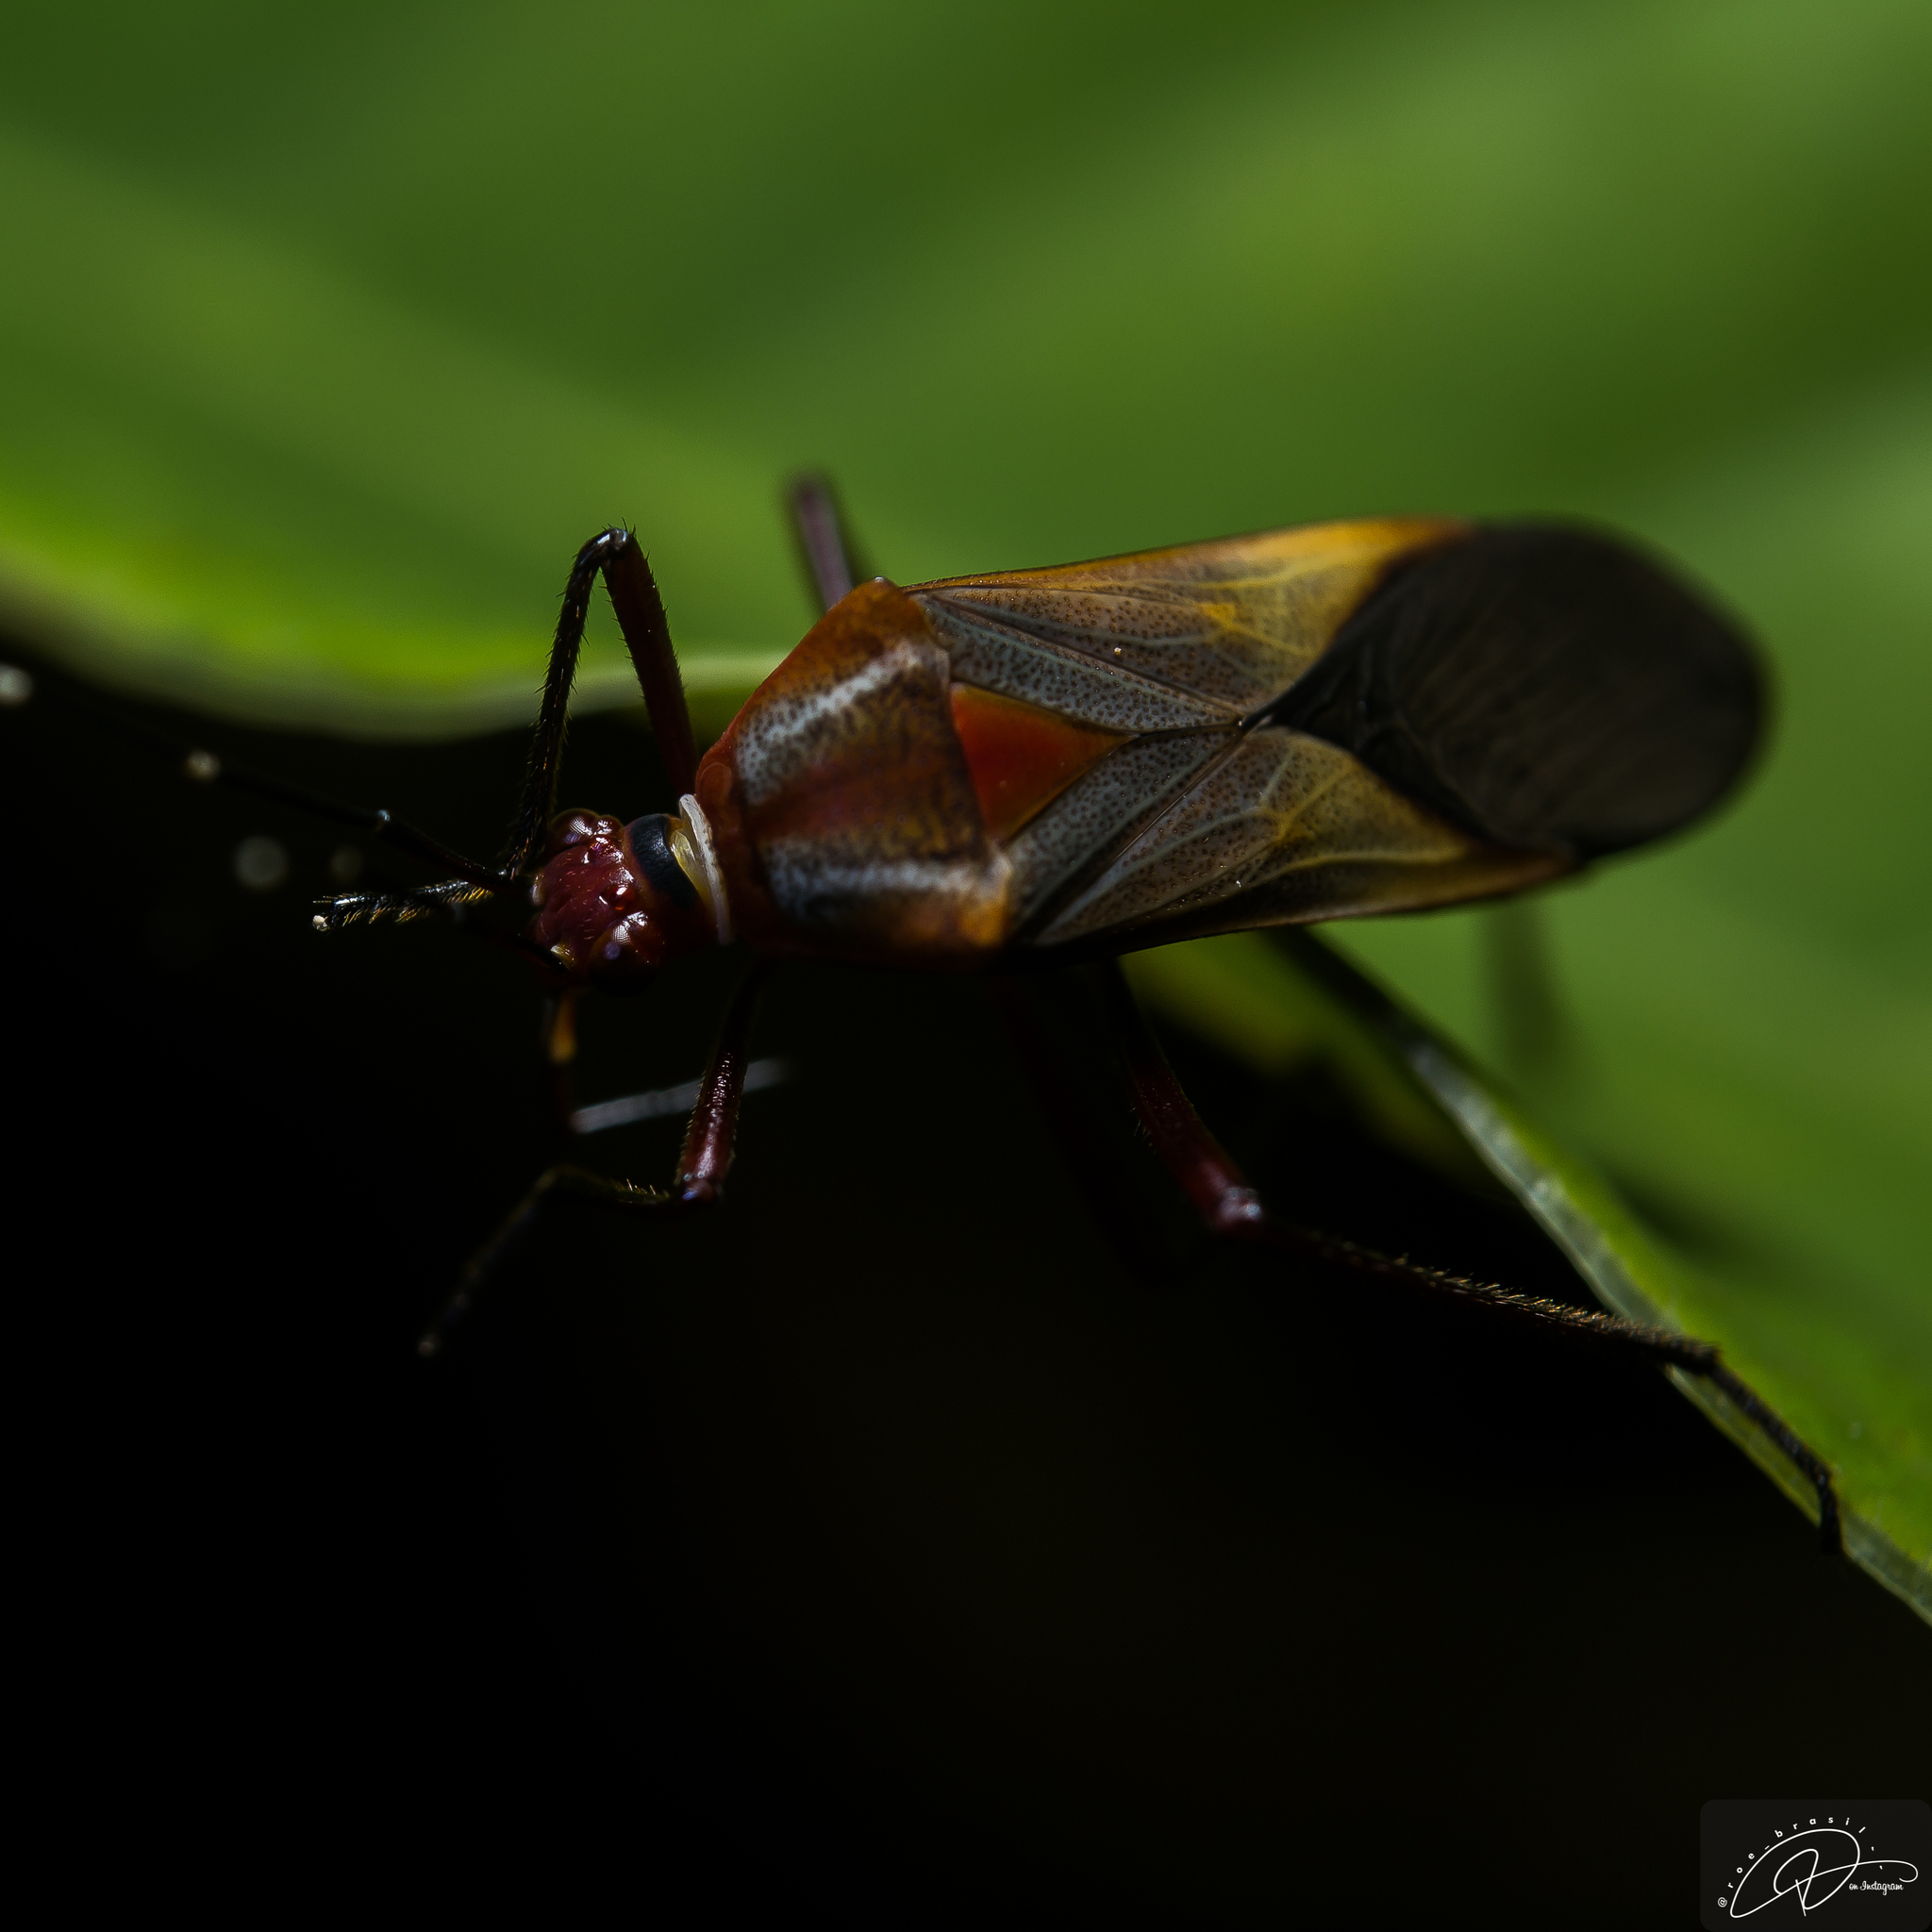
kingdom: Animalia
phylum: Arthropoda
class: Insecta
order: Hemiptera
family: Coreidae
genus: Hypselonotus
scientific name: Hypselonotus interruptus
